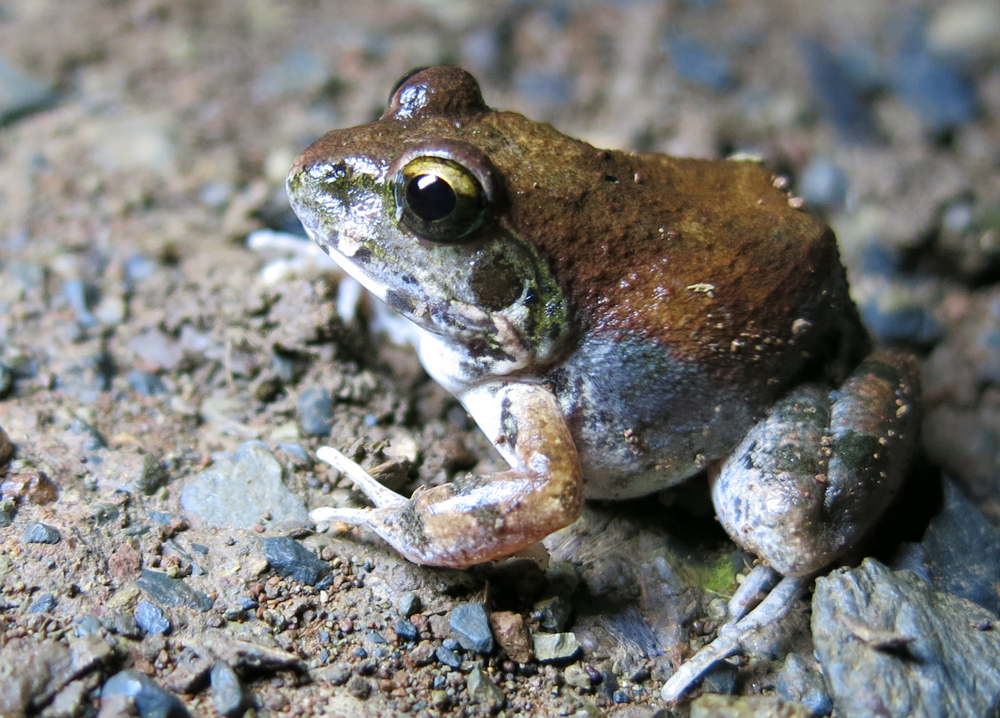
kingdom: Animalia
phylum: Chordata
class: Amphibia
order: Anura
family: Pyxicephalidae
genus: Tomopterna
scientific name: Tomopterna natalensis
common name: Natal sand frog
